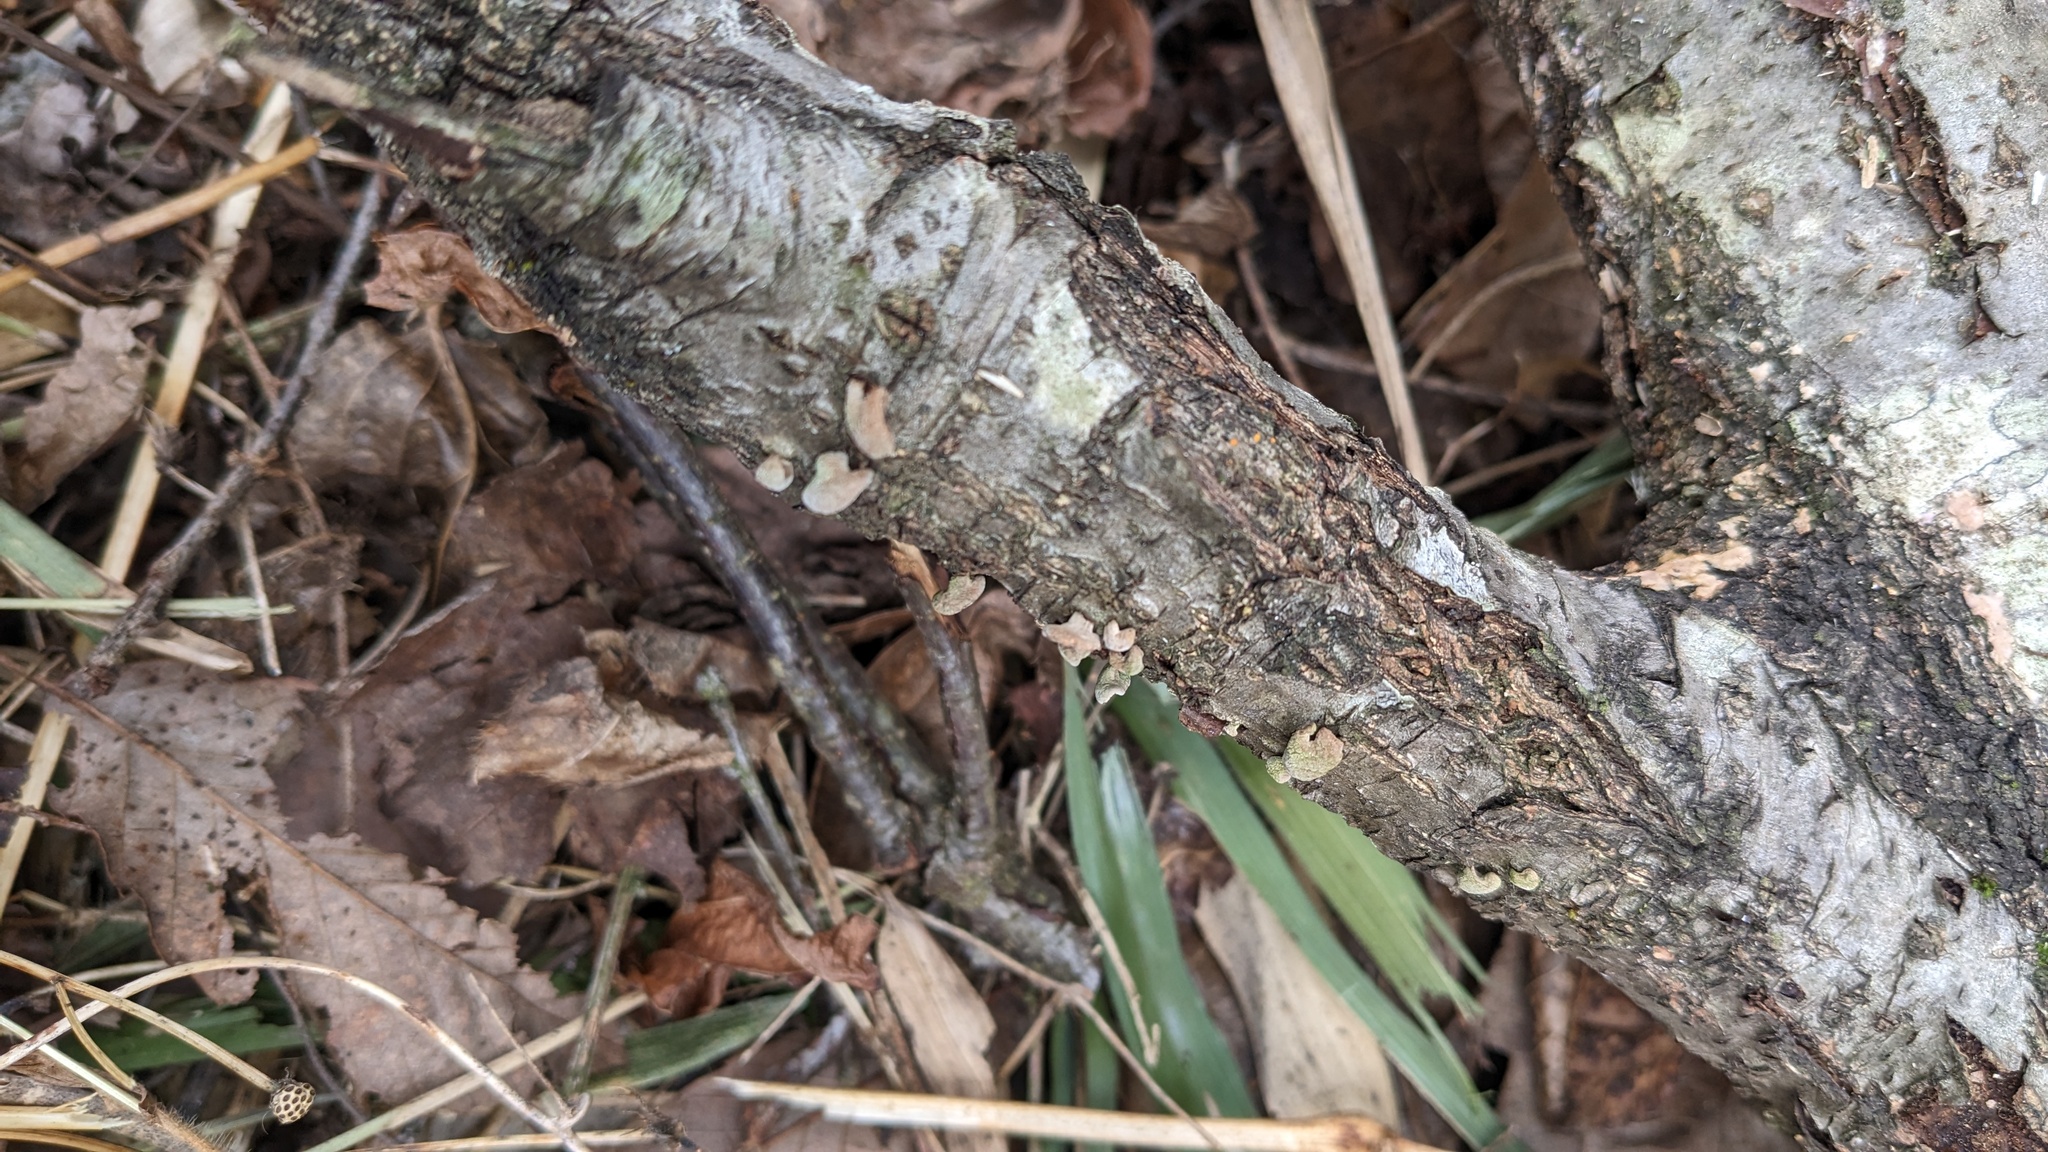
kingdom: Fungi
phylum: Basidiomycota
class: Agaricomycetes
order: Agaricales
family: Schizophyllaceae
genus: Porodisculus
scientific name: Porodisculus pendulus
